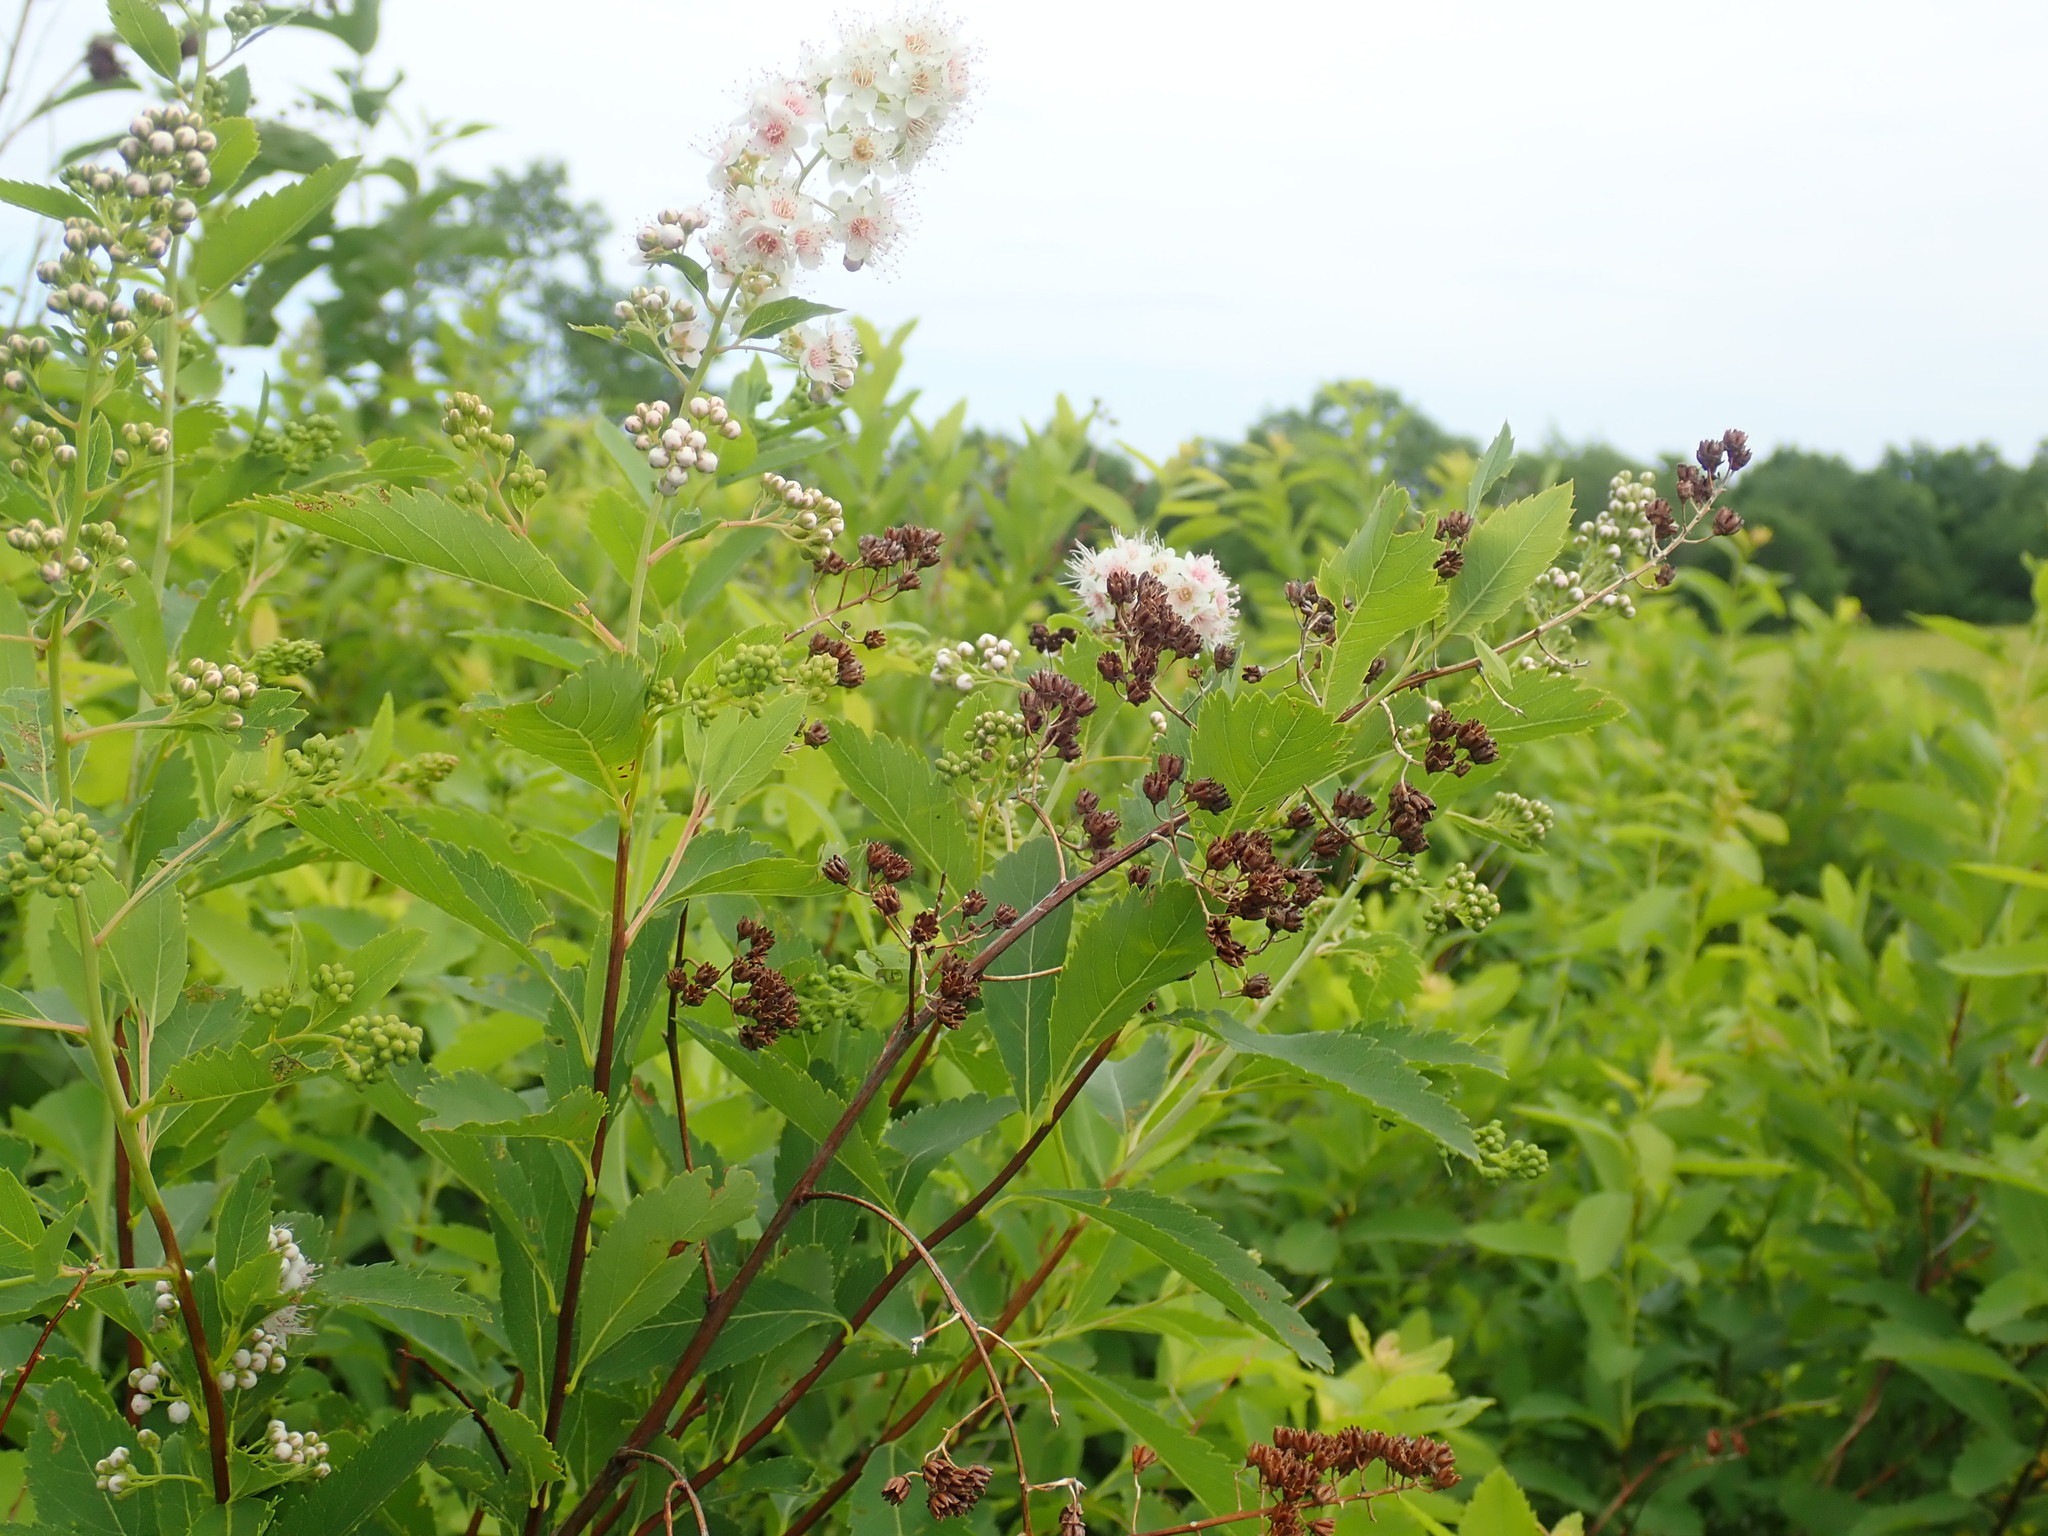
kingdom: Plantae
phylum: Tracheophyta
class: Magnoliopsida
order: Rosales
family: Rosaceae
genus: Spiraea
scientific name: Spiraea alba
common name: Pale bridewort
